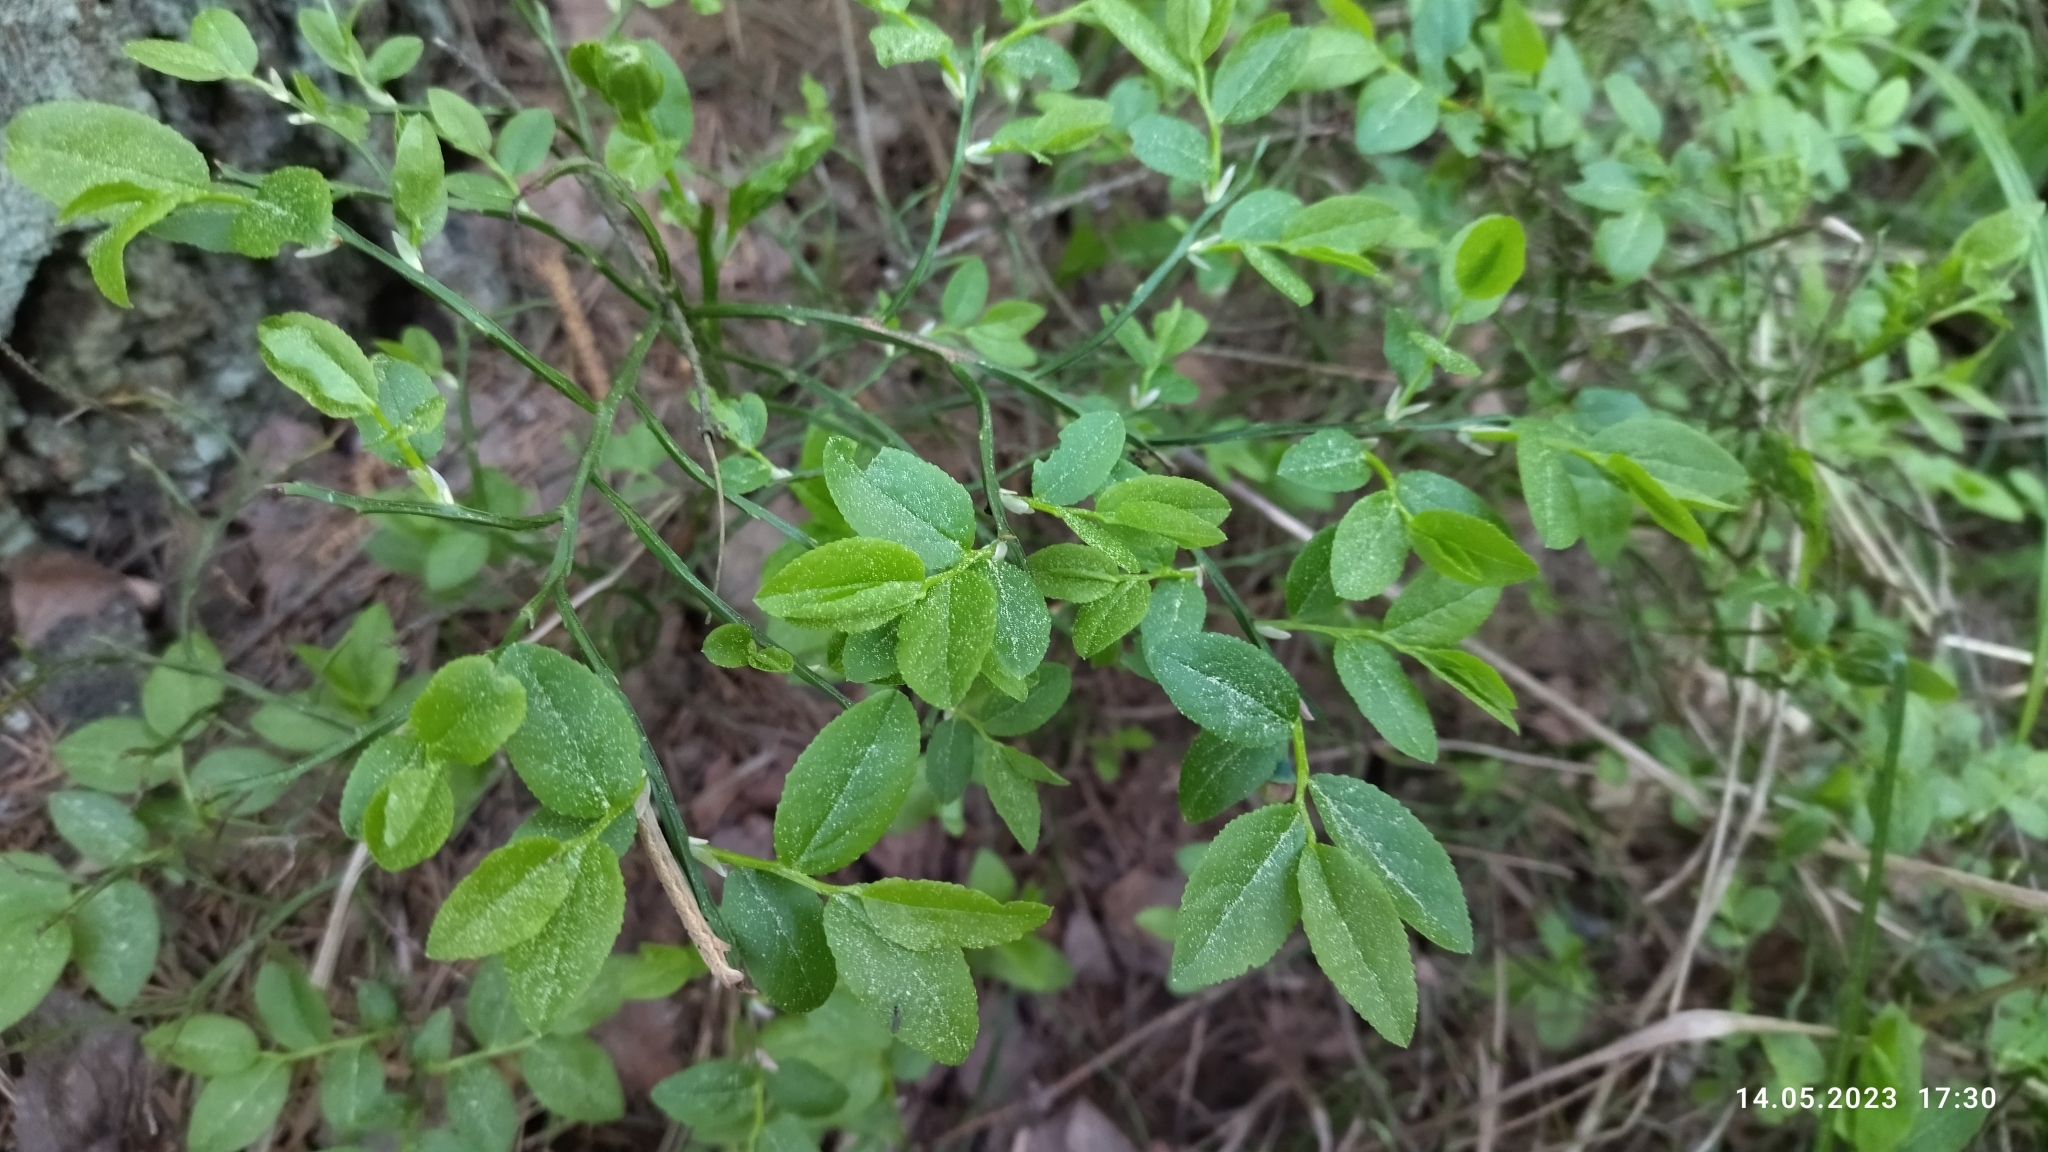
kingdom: Plantae
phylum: Tracheophyta
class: Magnoliopsida
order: Ericales
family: Ericaceae
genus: Vaccinium
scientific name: Vaccinium myrtillus
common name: Bilberry
